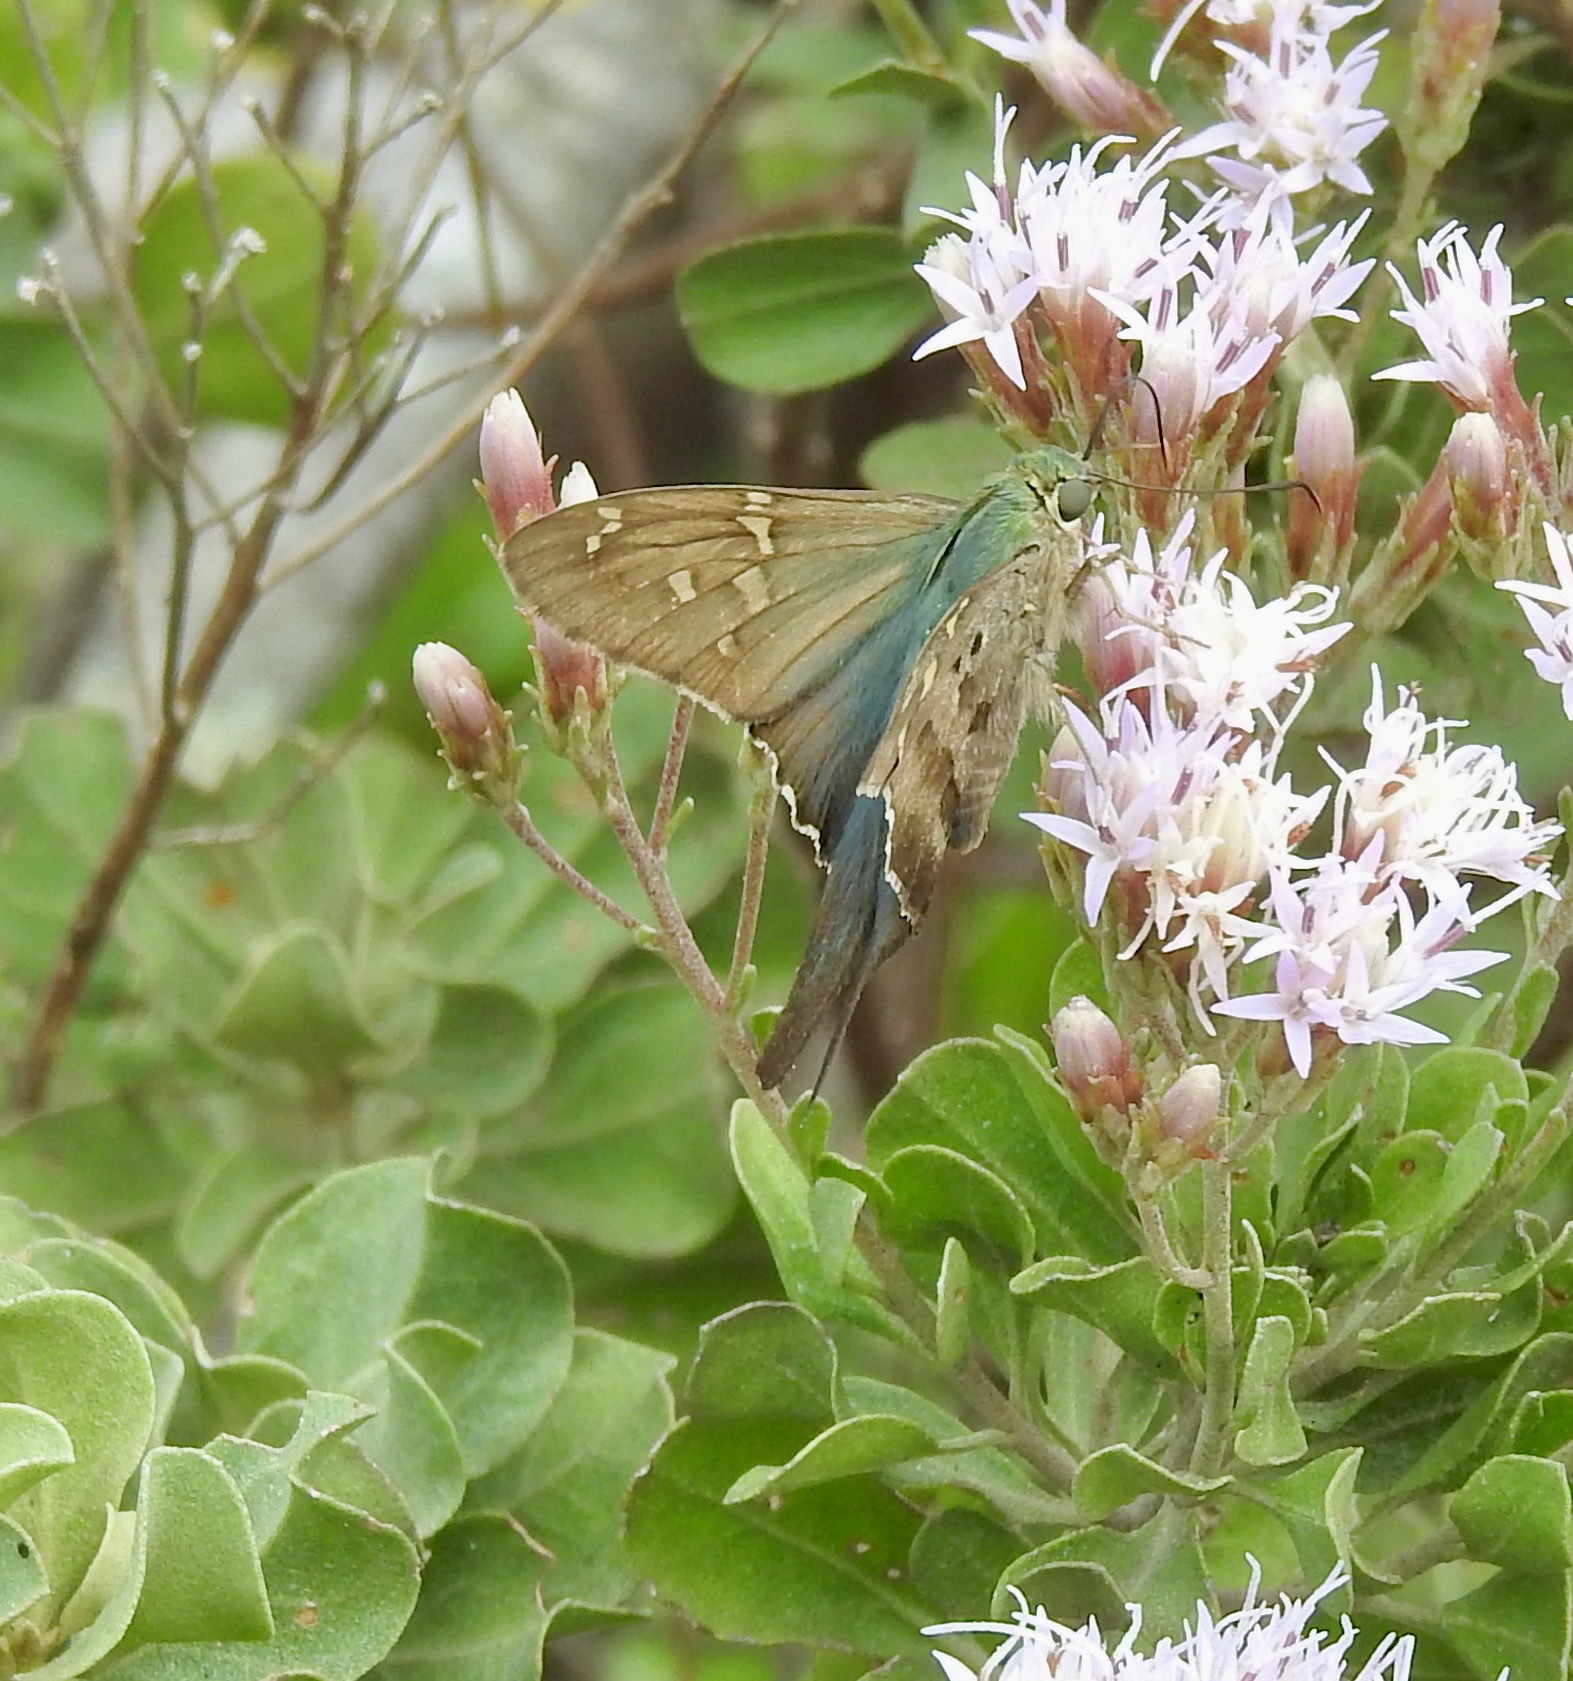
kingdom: Animalia
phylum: Arthropoda
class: Insecta
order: Lepidoptera
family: Hesperiidae
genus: Urbanus
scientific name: Urbanus proteus
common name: Long-tailed skipper
